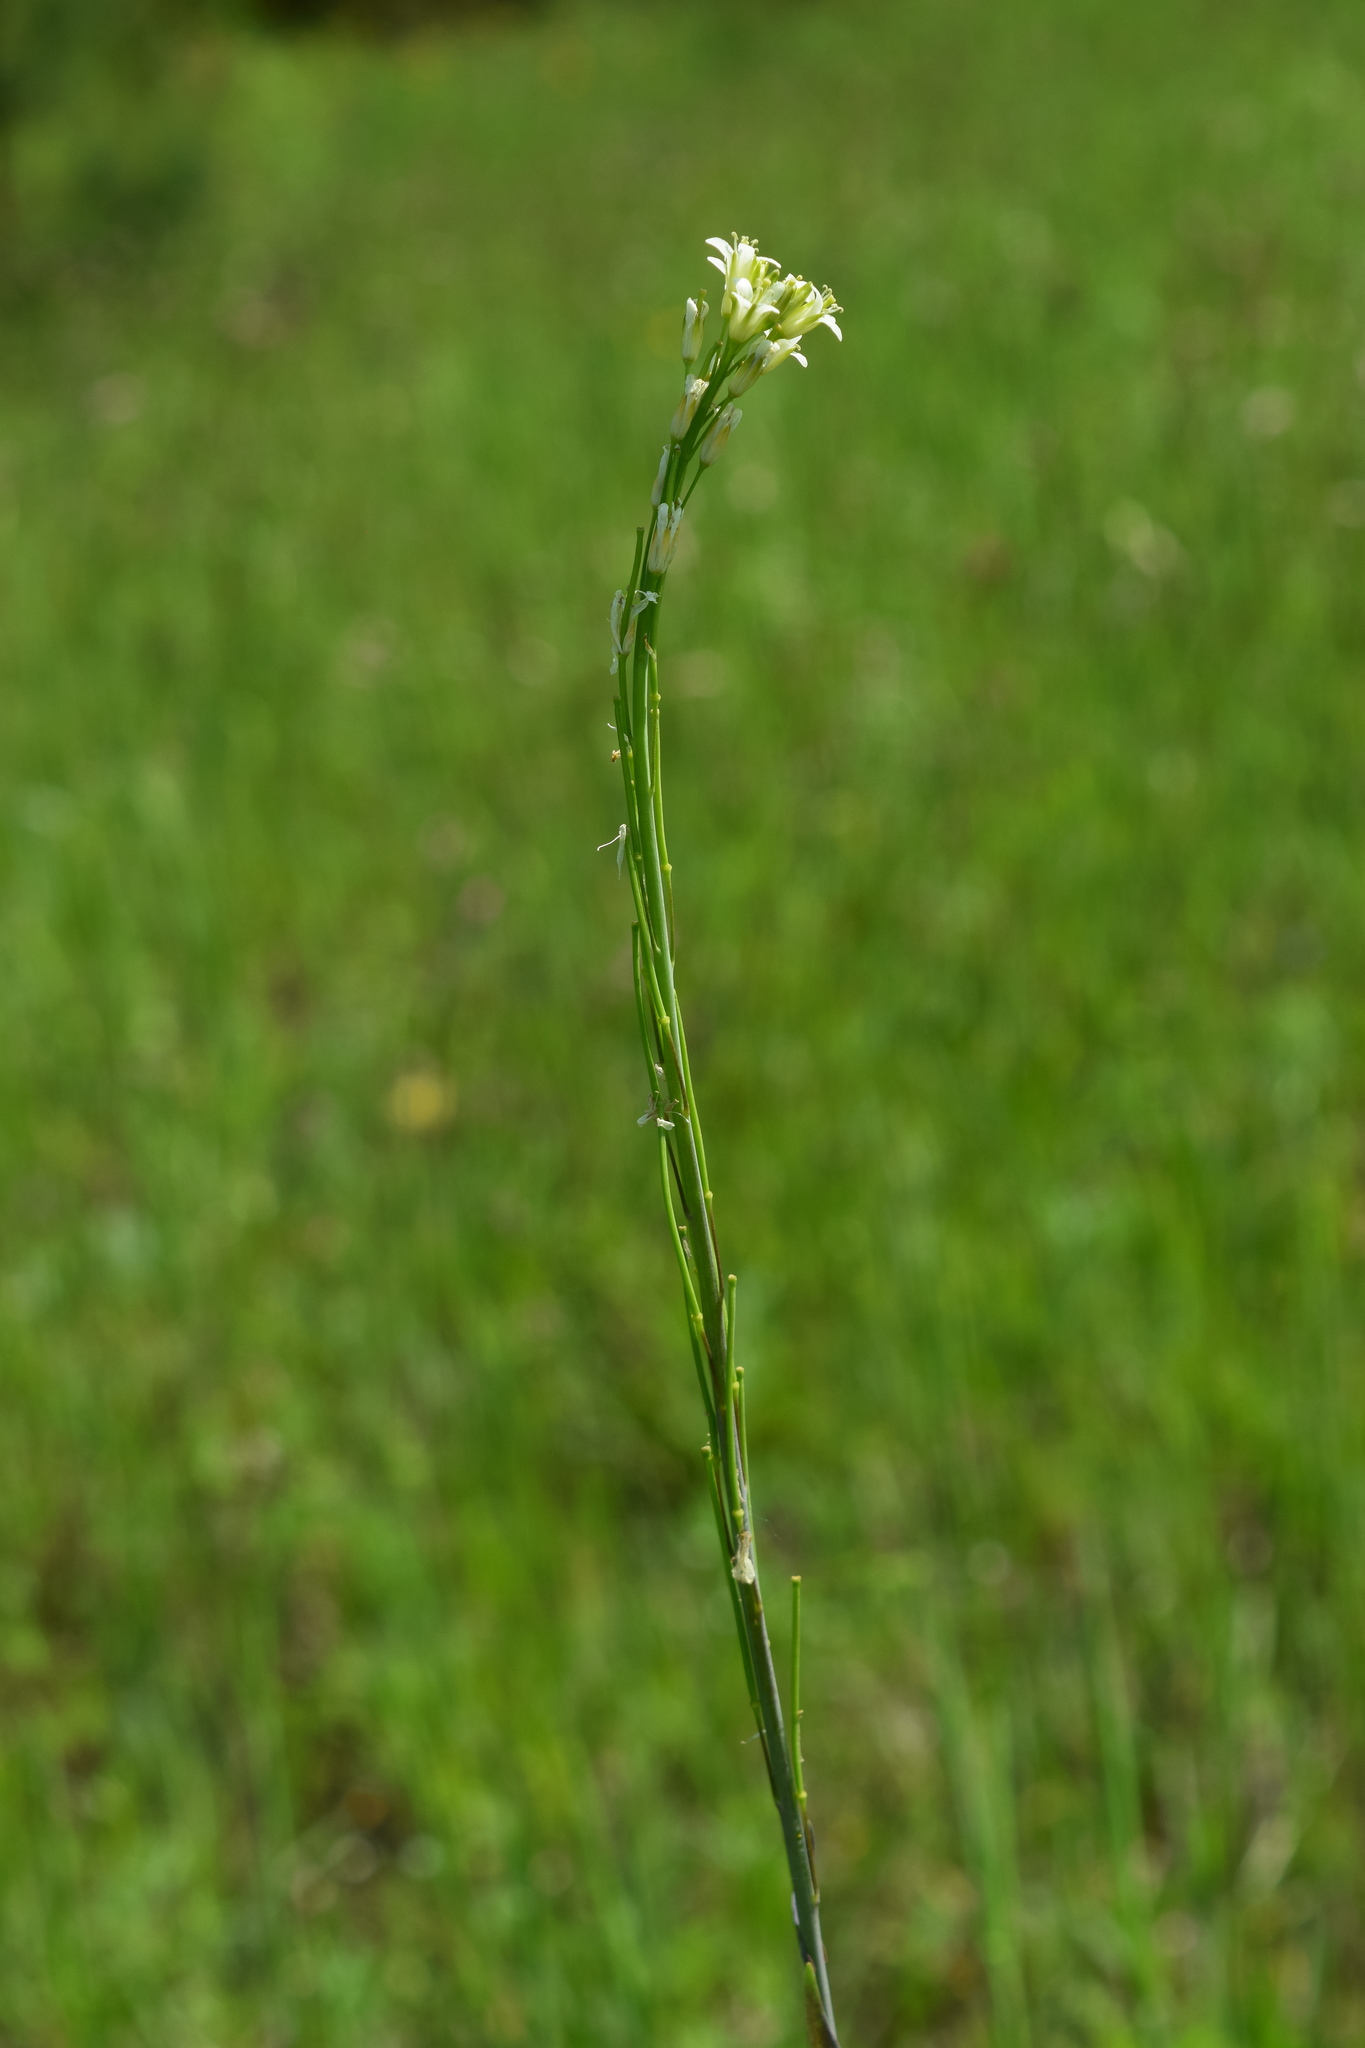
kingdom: Plantae
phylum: Tracheophyta
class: Magnoliopsida
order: Brassicales
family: Brassicaceae
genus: Turritis
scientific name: Turritis glabra
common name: Tower rockcress
